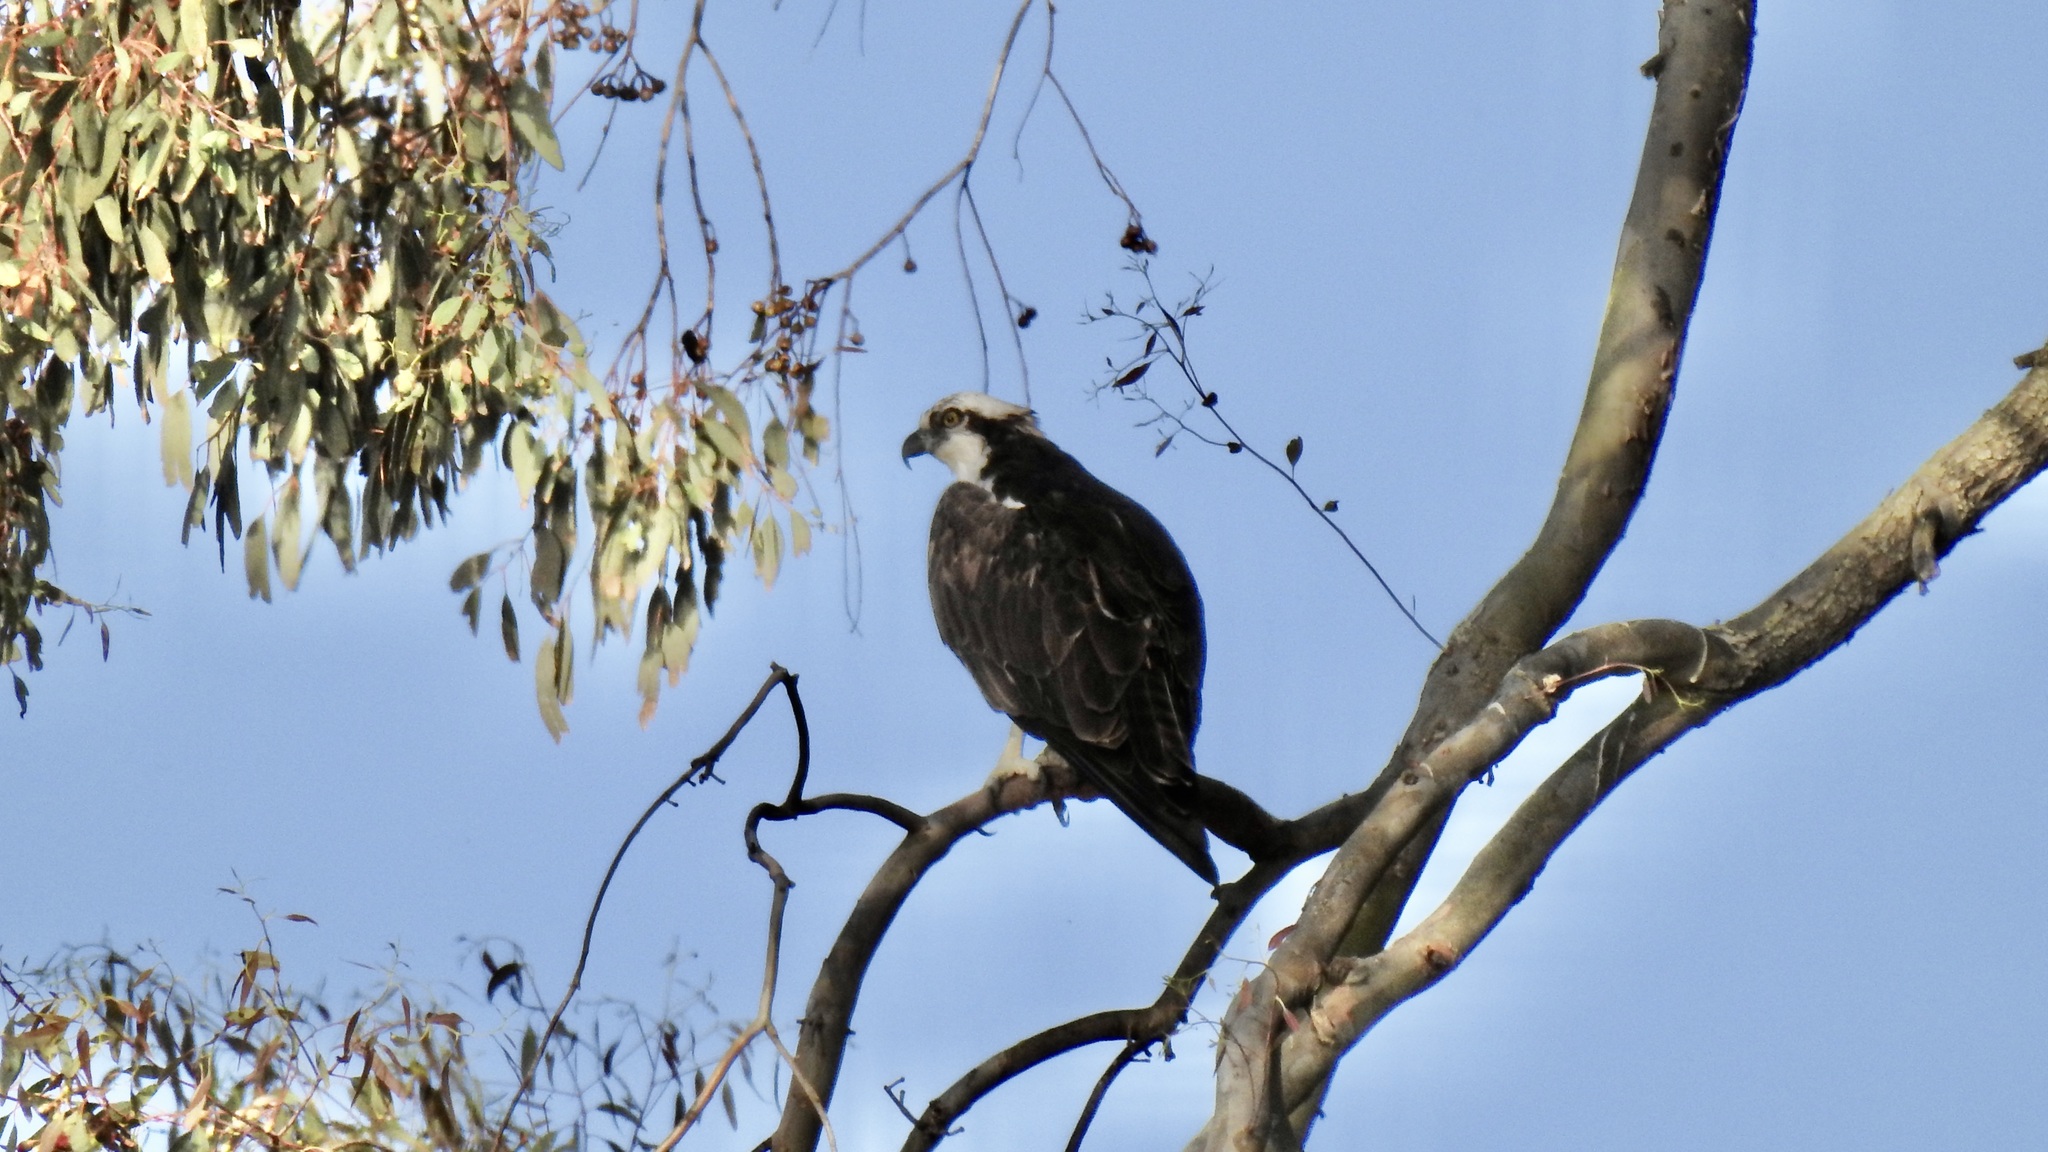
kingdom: Animalia
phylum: Chordata
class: Aves
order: Accipitriformes
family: Pandionidae
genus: Pandion
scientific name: Pandion haliaetus
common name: Osprey
